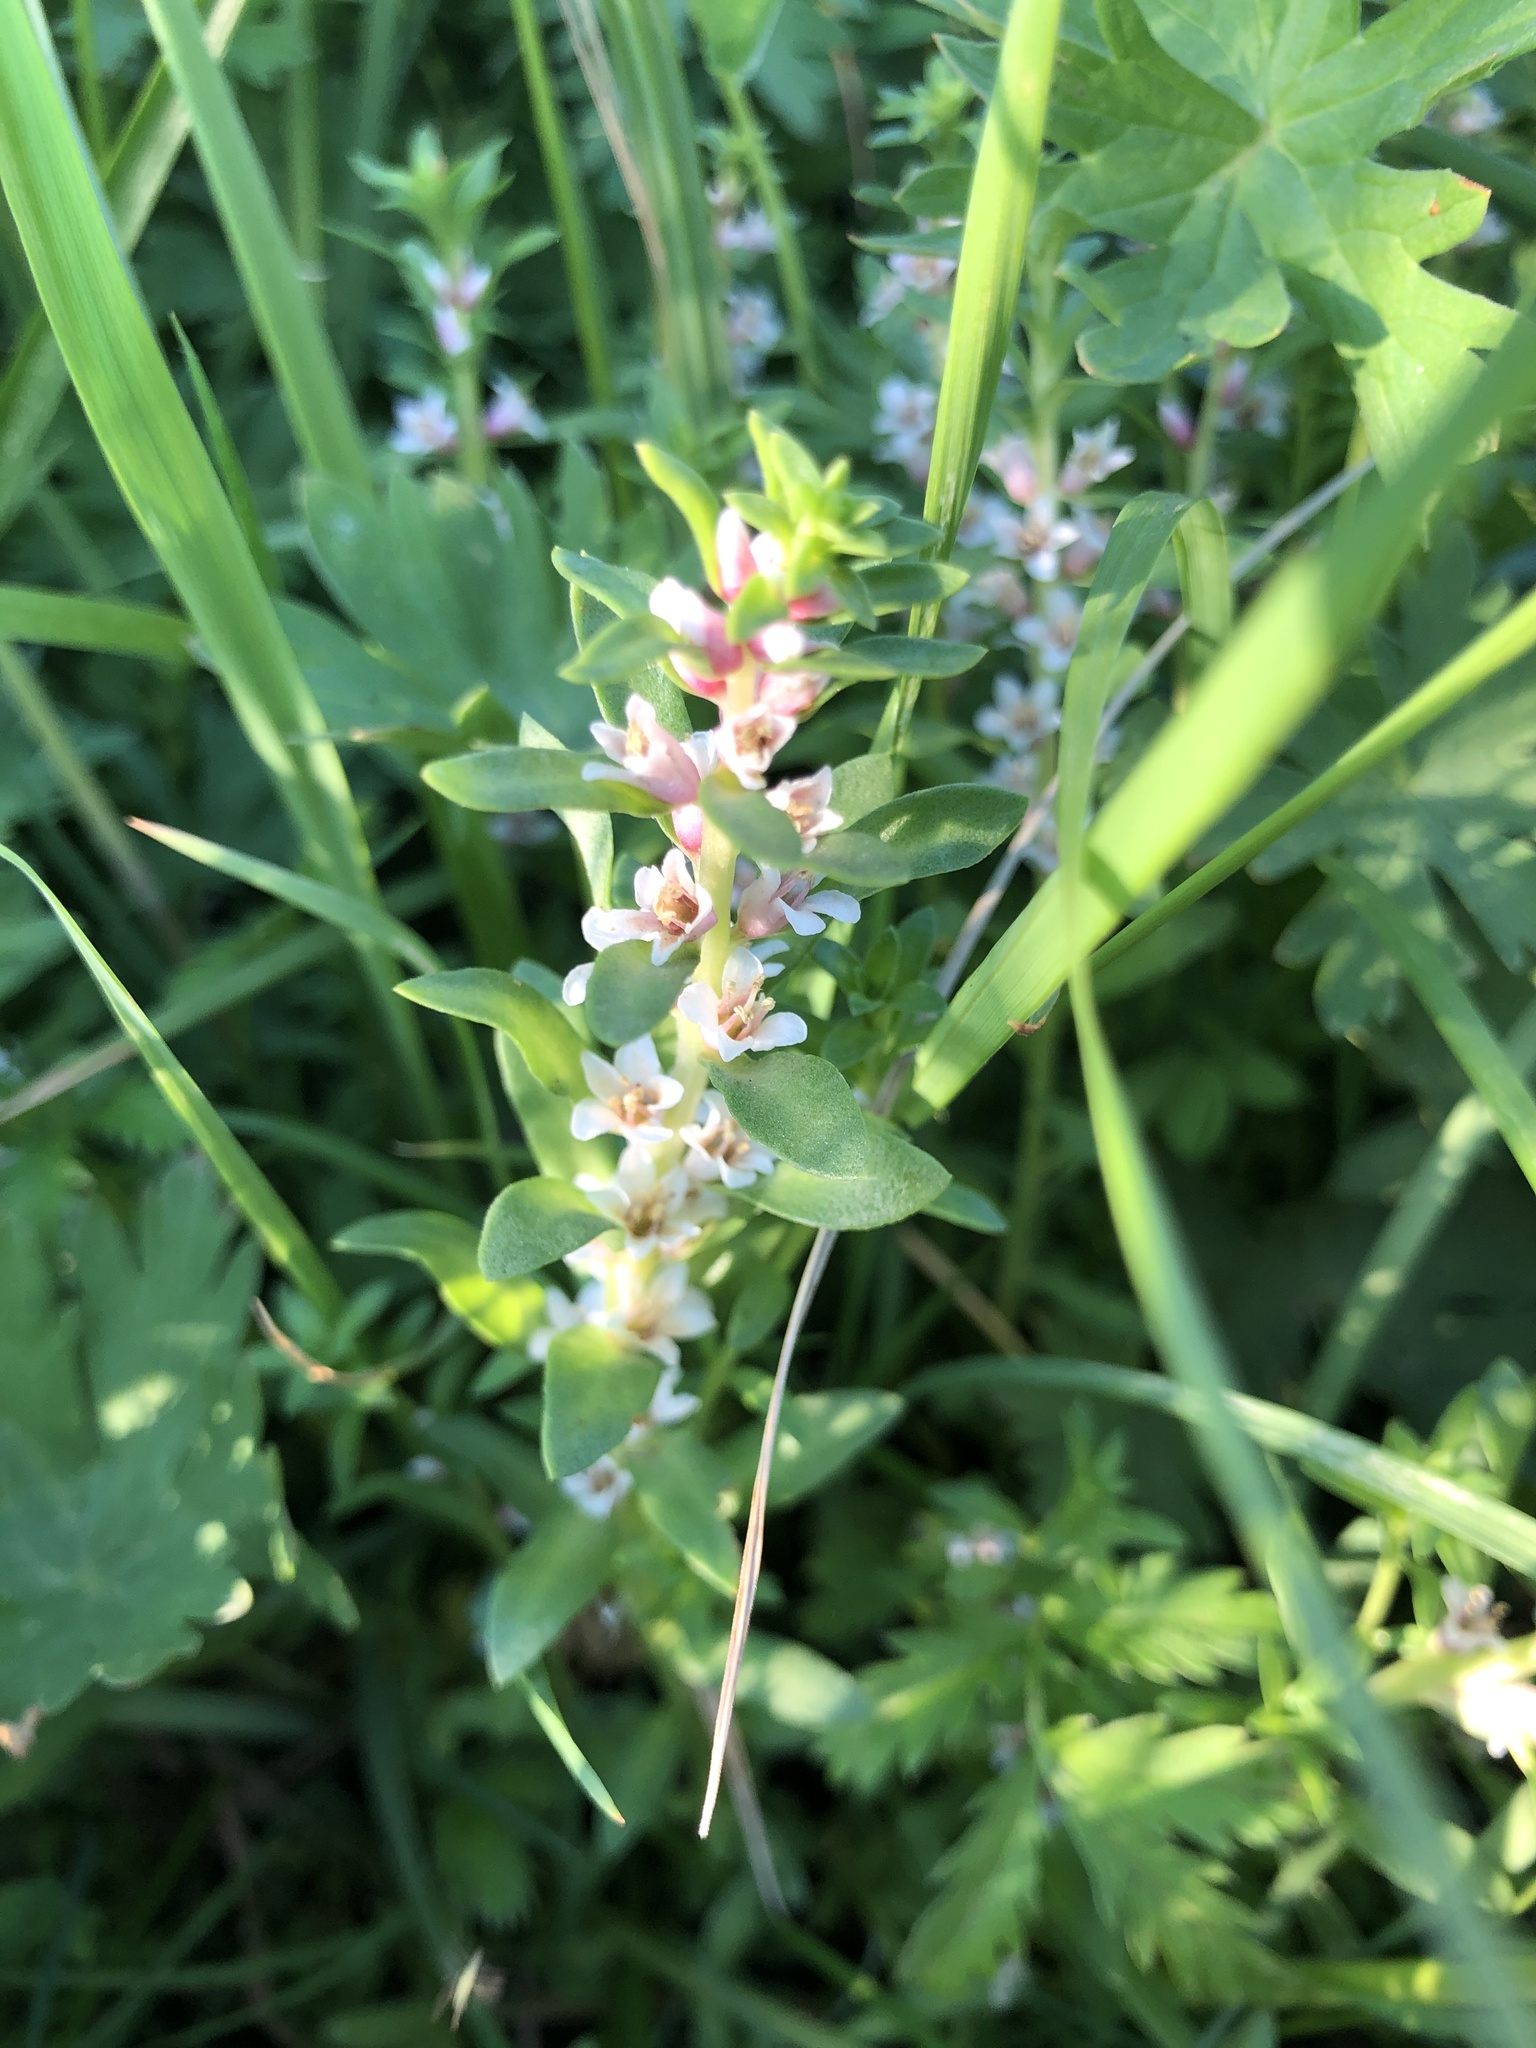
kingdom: Plantae
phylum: Tracheophyta
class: Magnoliopsida
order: Ericales
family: Primulaceae
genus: Lysimachia
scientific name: Lysimachia maritima
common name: Sea milkwort
